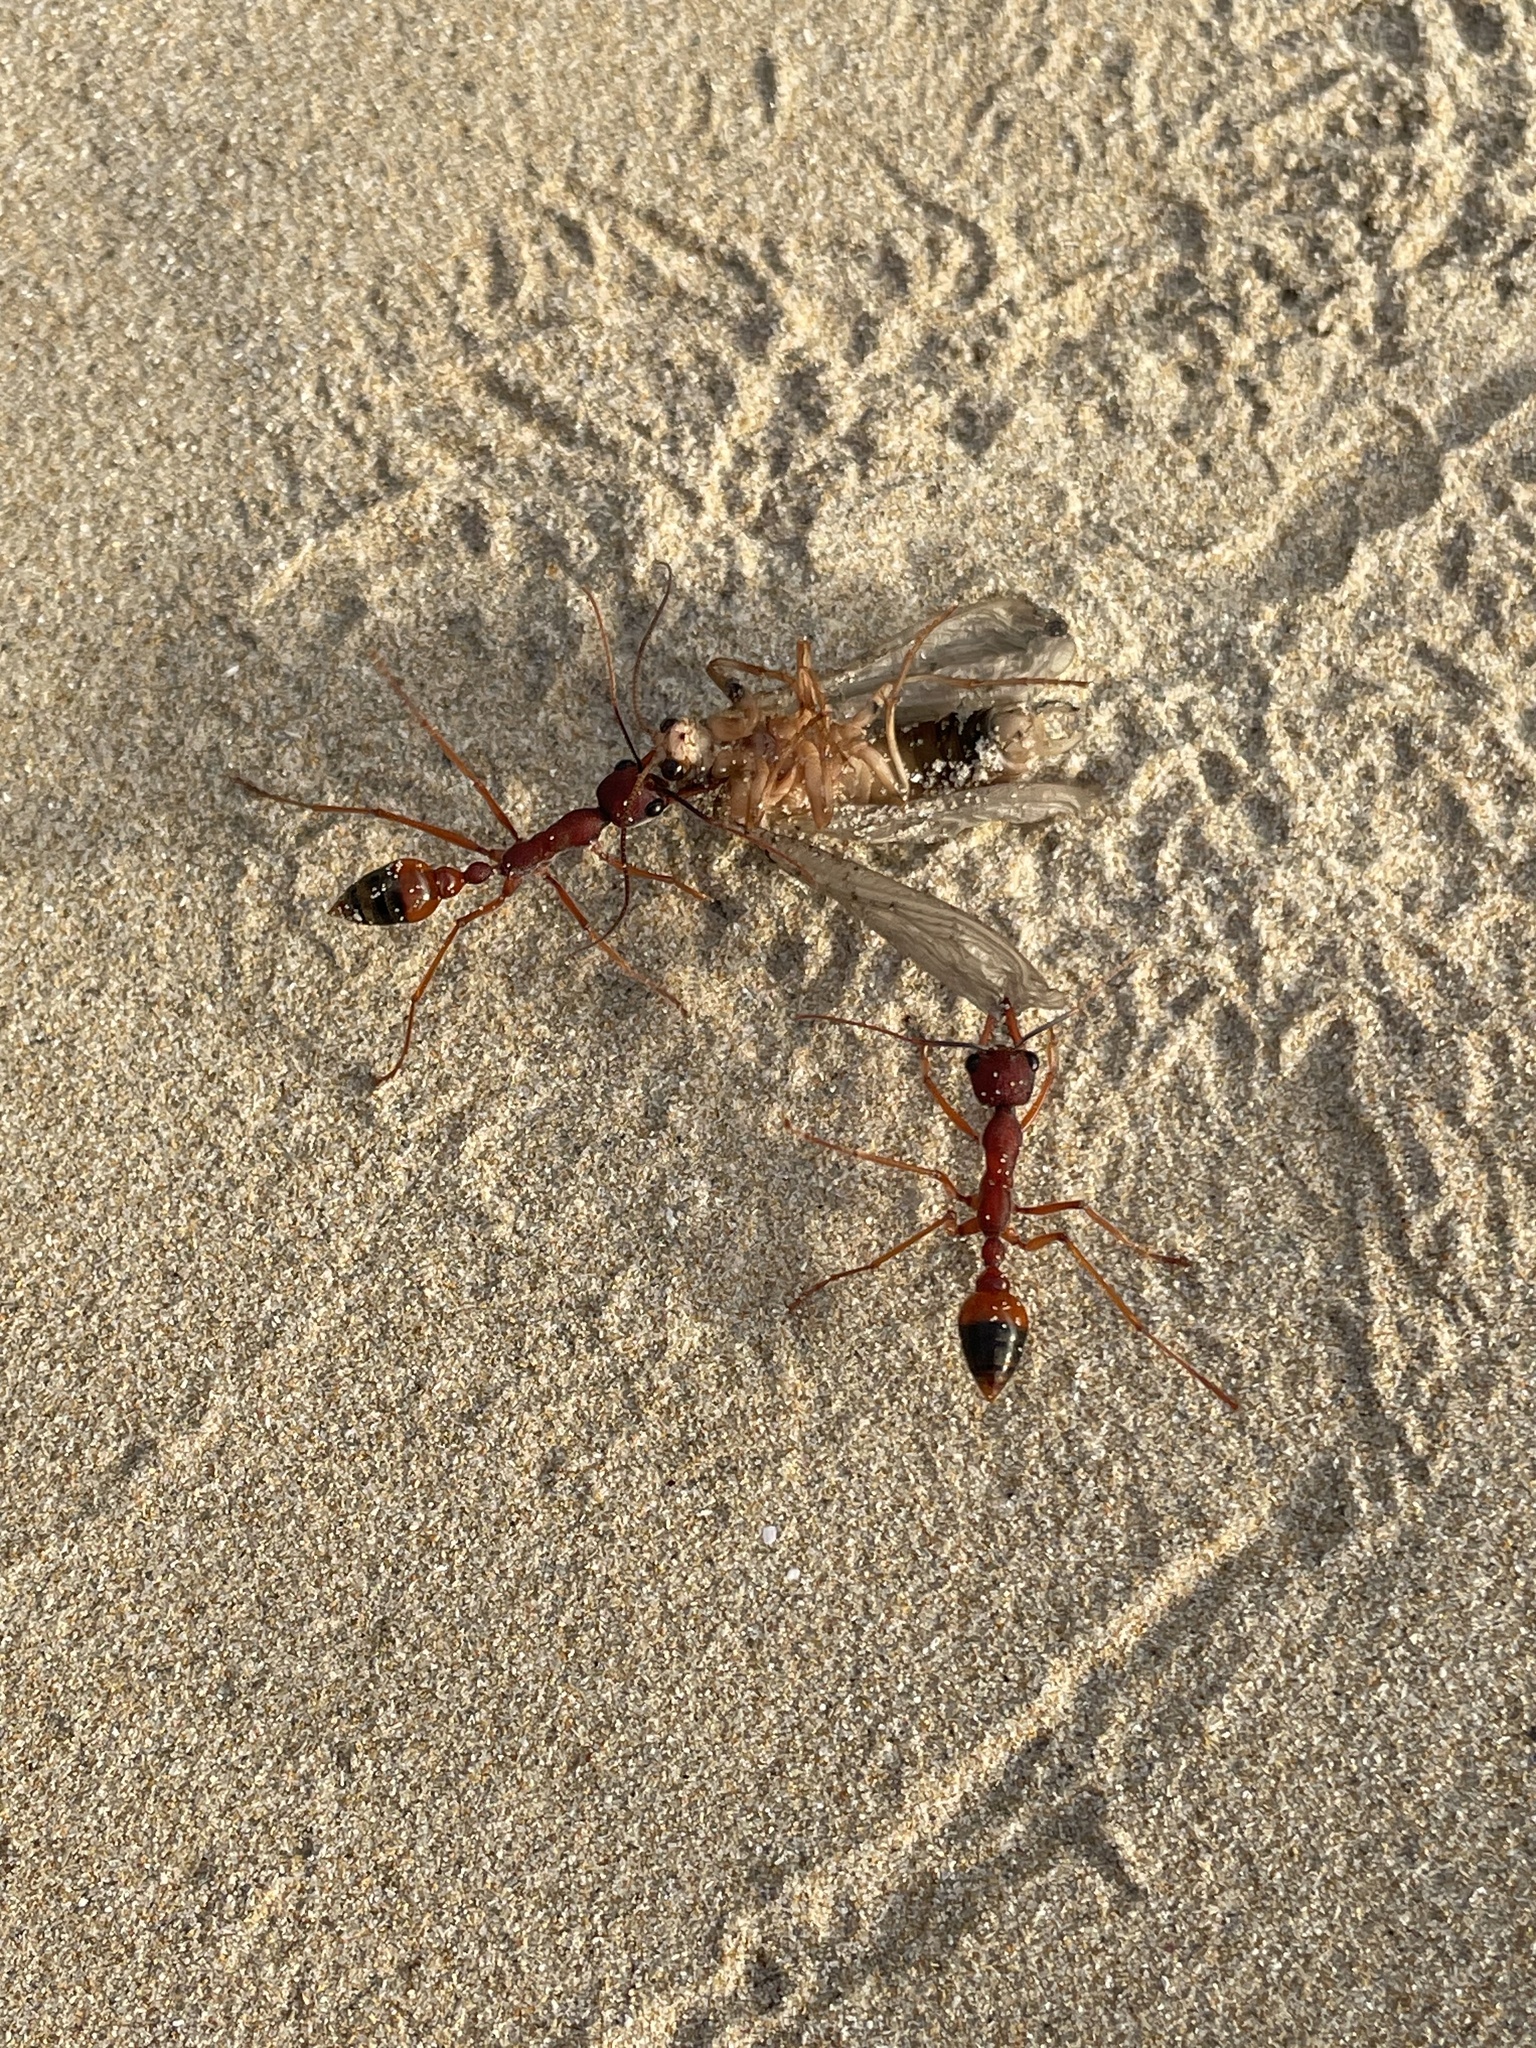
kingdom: Animalia
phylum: Arthropoda
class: Insecta
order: Hymenoptera
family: Formicidae
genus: Myrmecia
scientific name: Myrmecia nigriscapa
